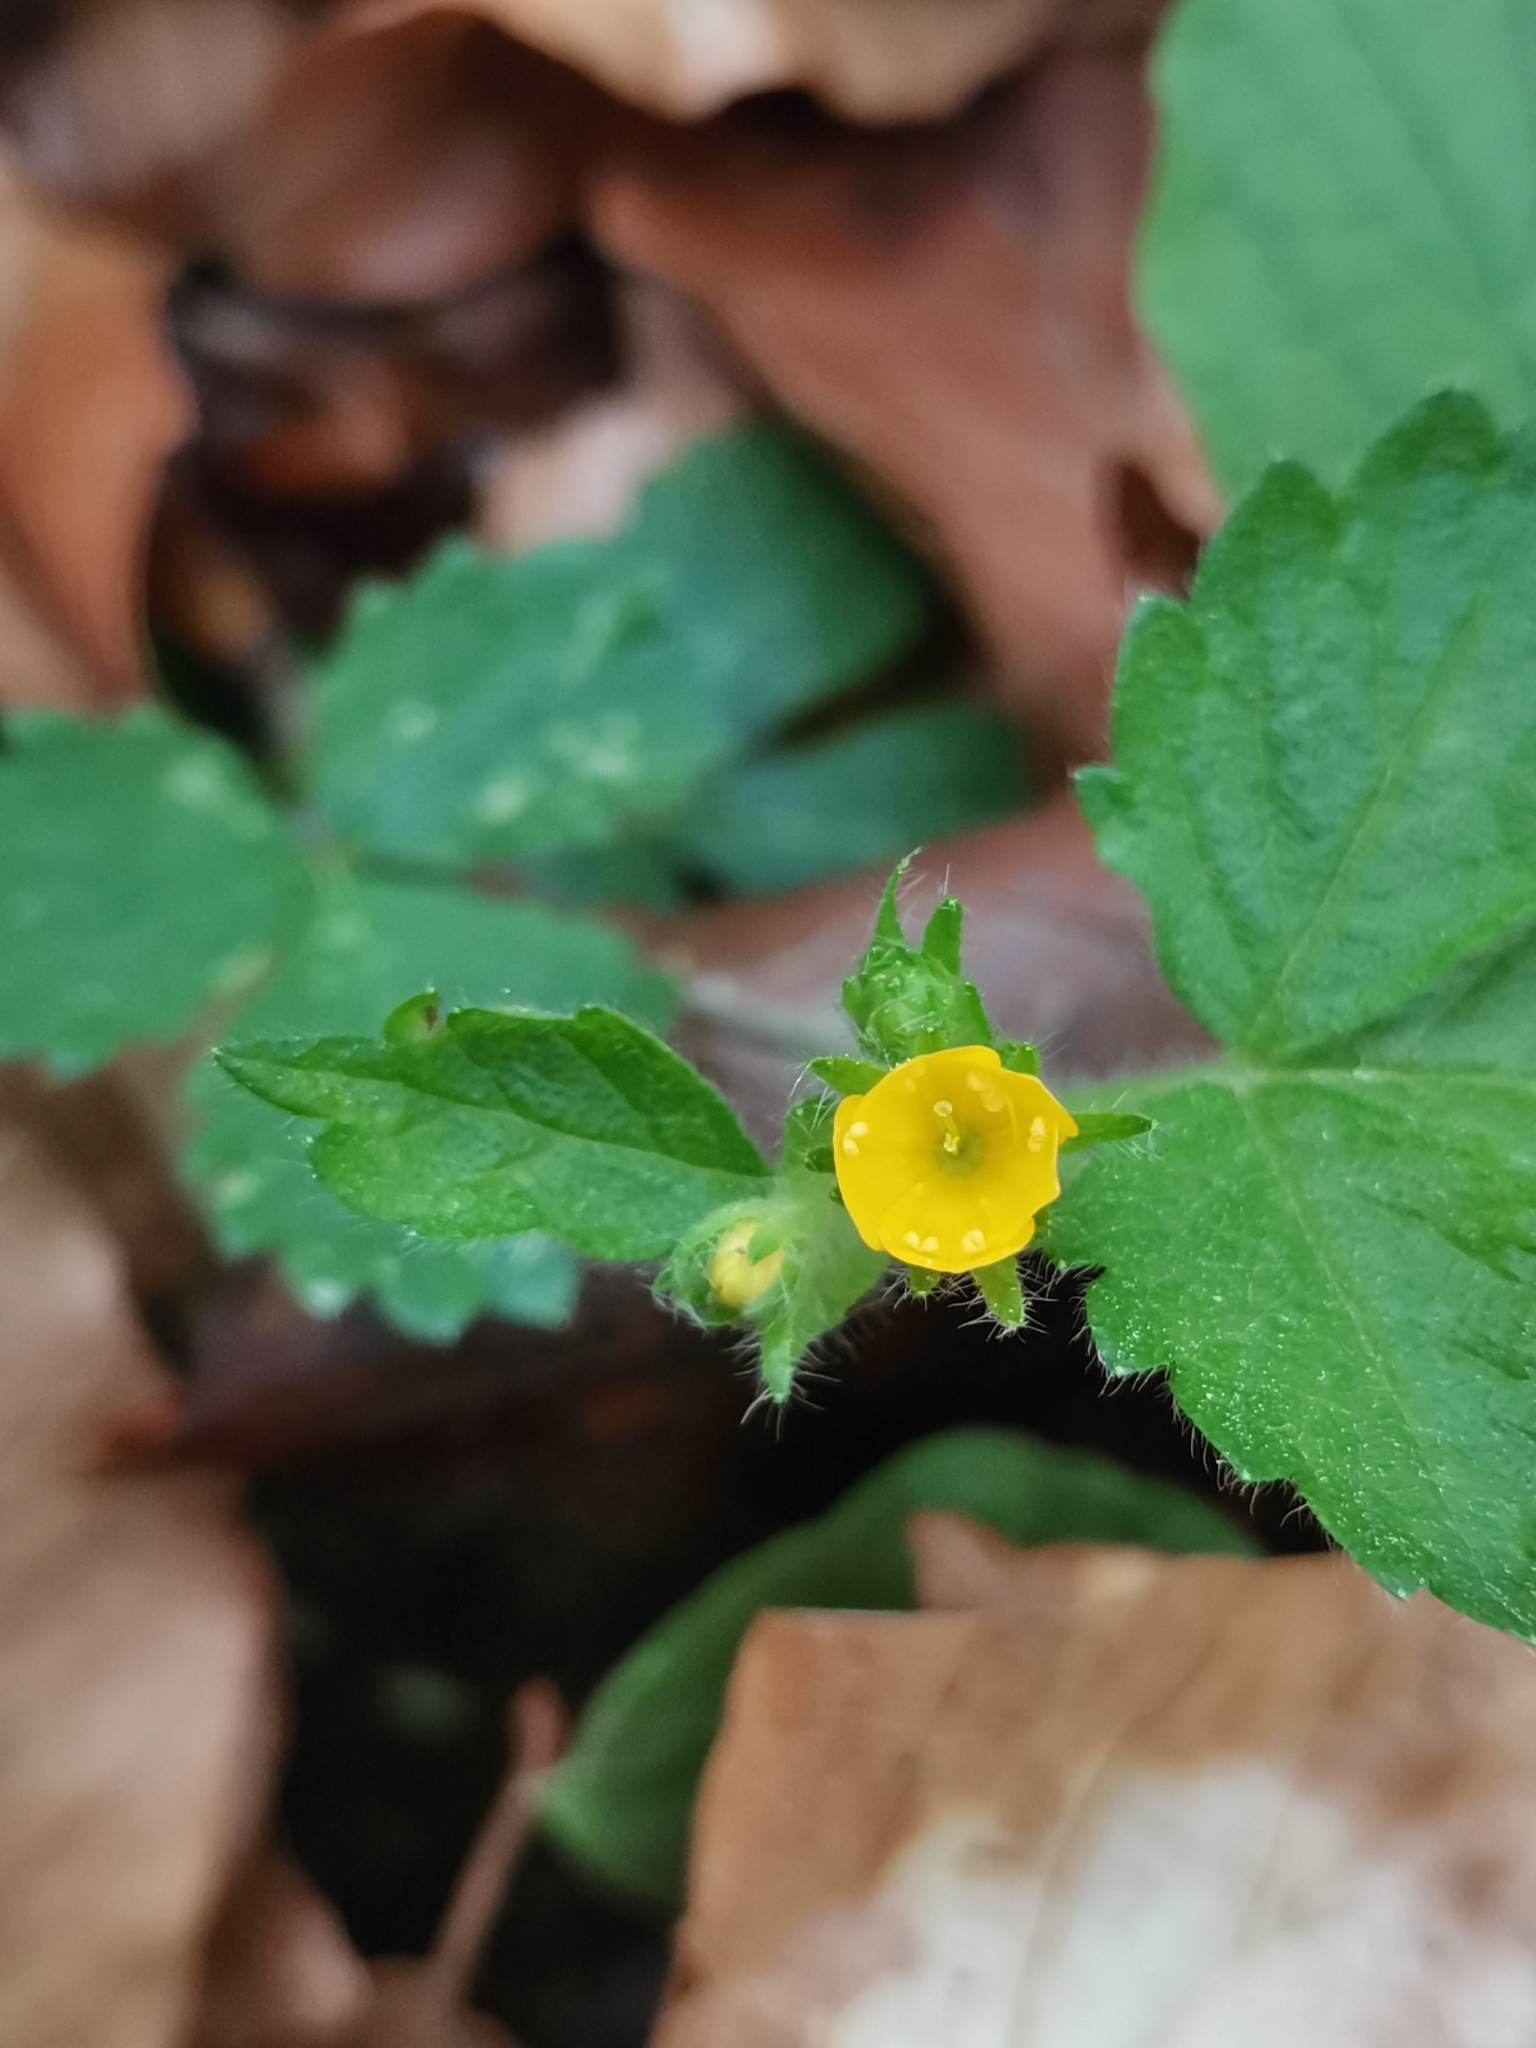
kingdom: Plantae
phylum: Tracheophyta
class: Magnoliopsida
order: Rosales
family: Rosaceae
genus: Aremonia
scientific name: Aremonia agrimonoides
